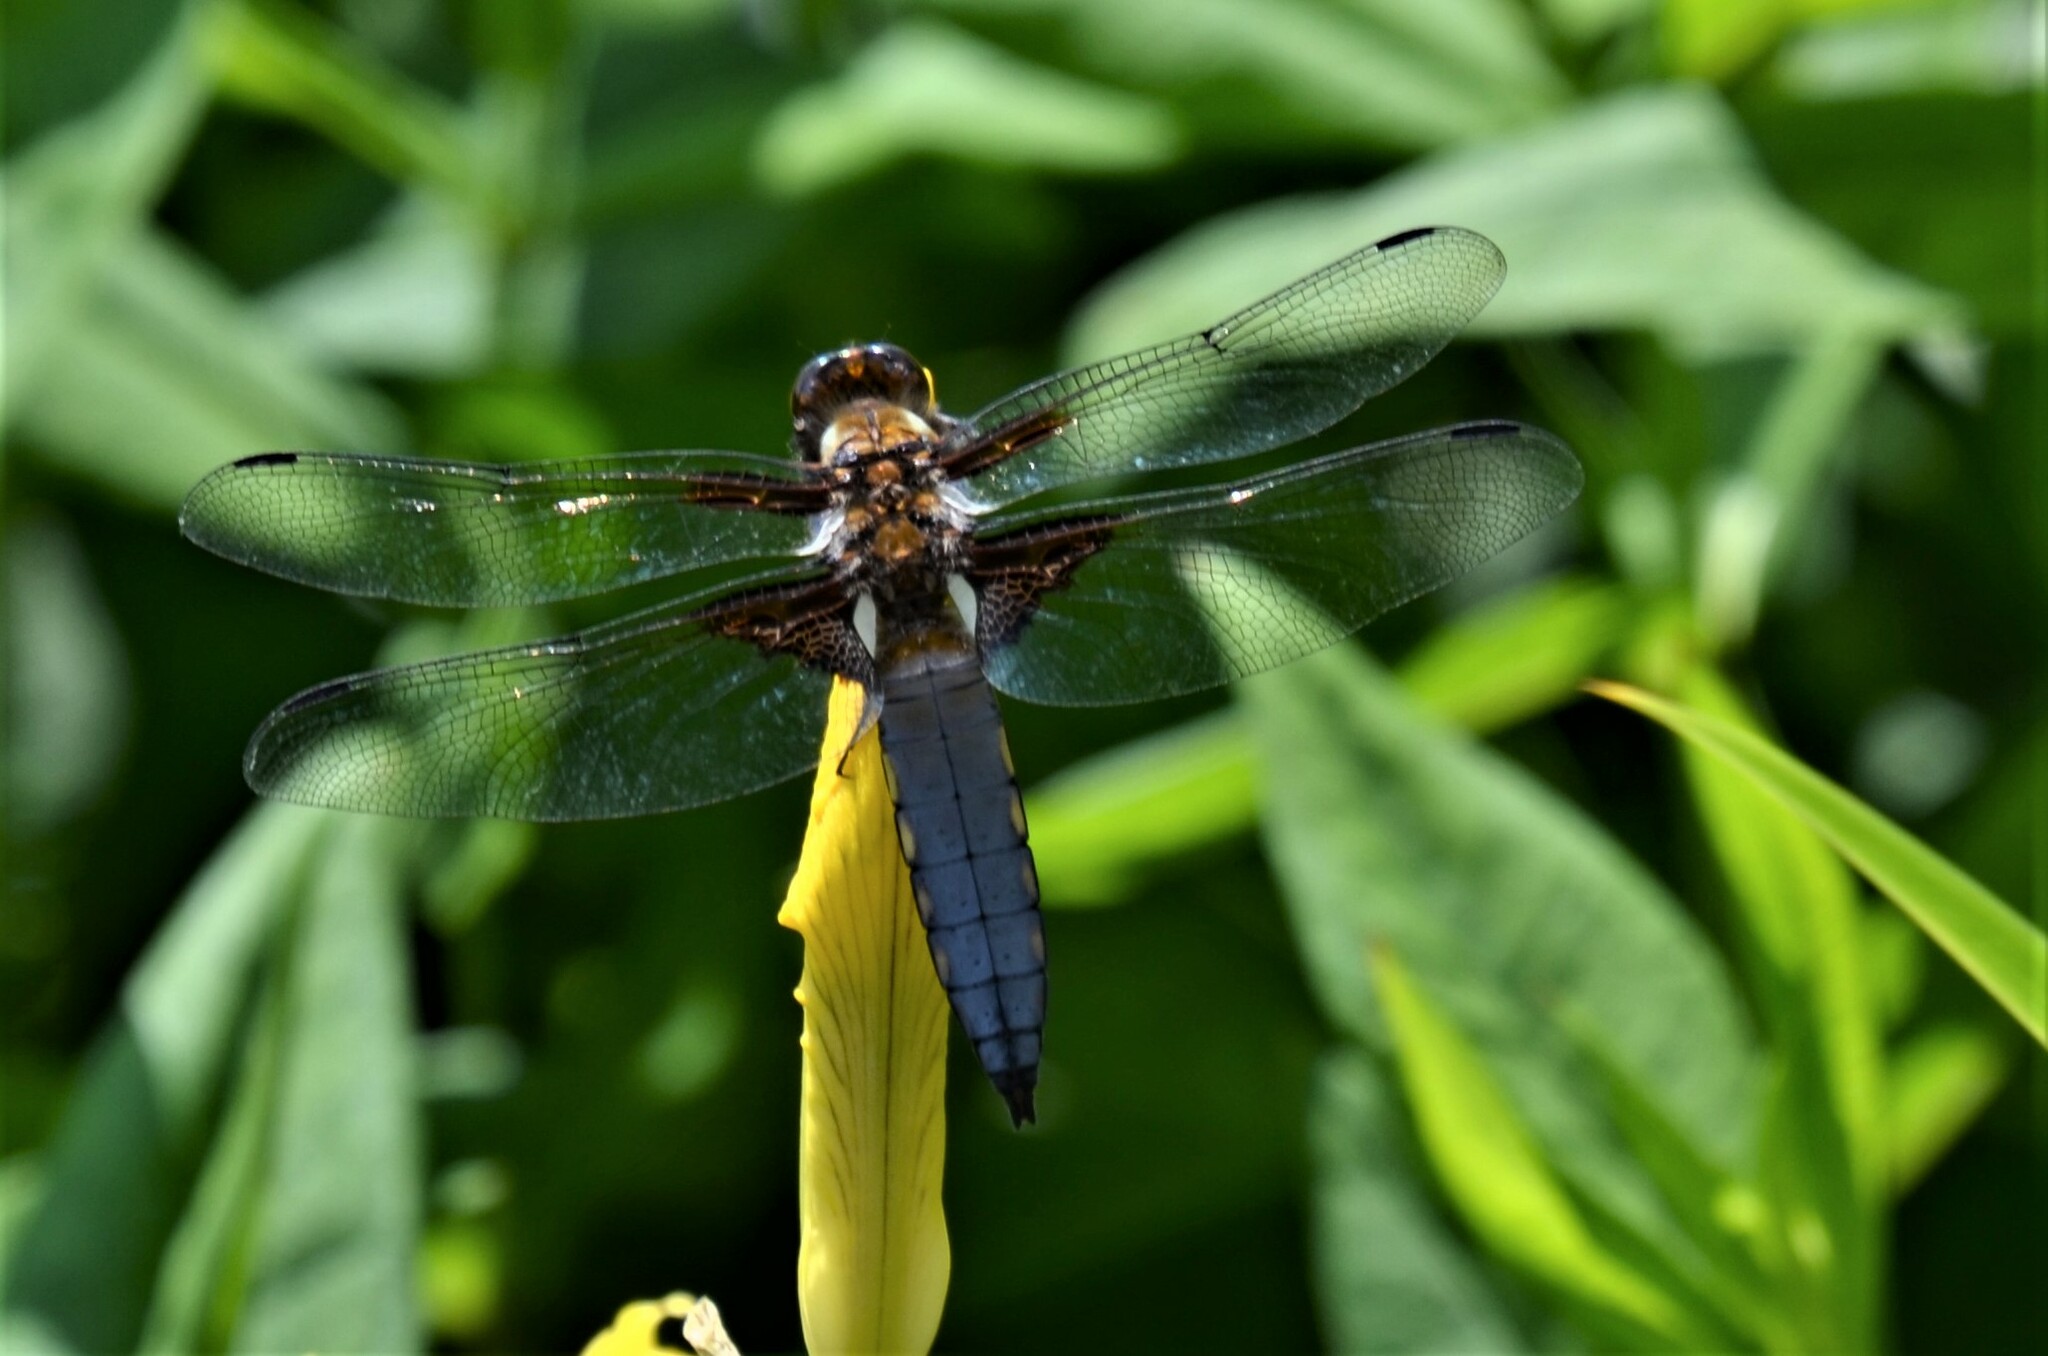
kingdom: Animalia
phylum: Arthropoda
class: Insecta
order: Odonata
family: Libellulidae
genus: Libellula
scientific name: Libellula depressa
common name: Broad-bodied chaser
